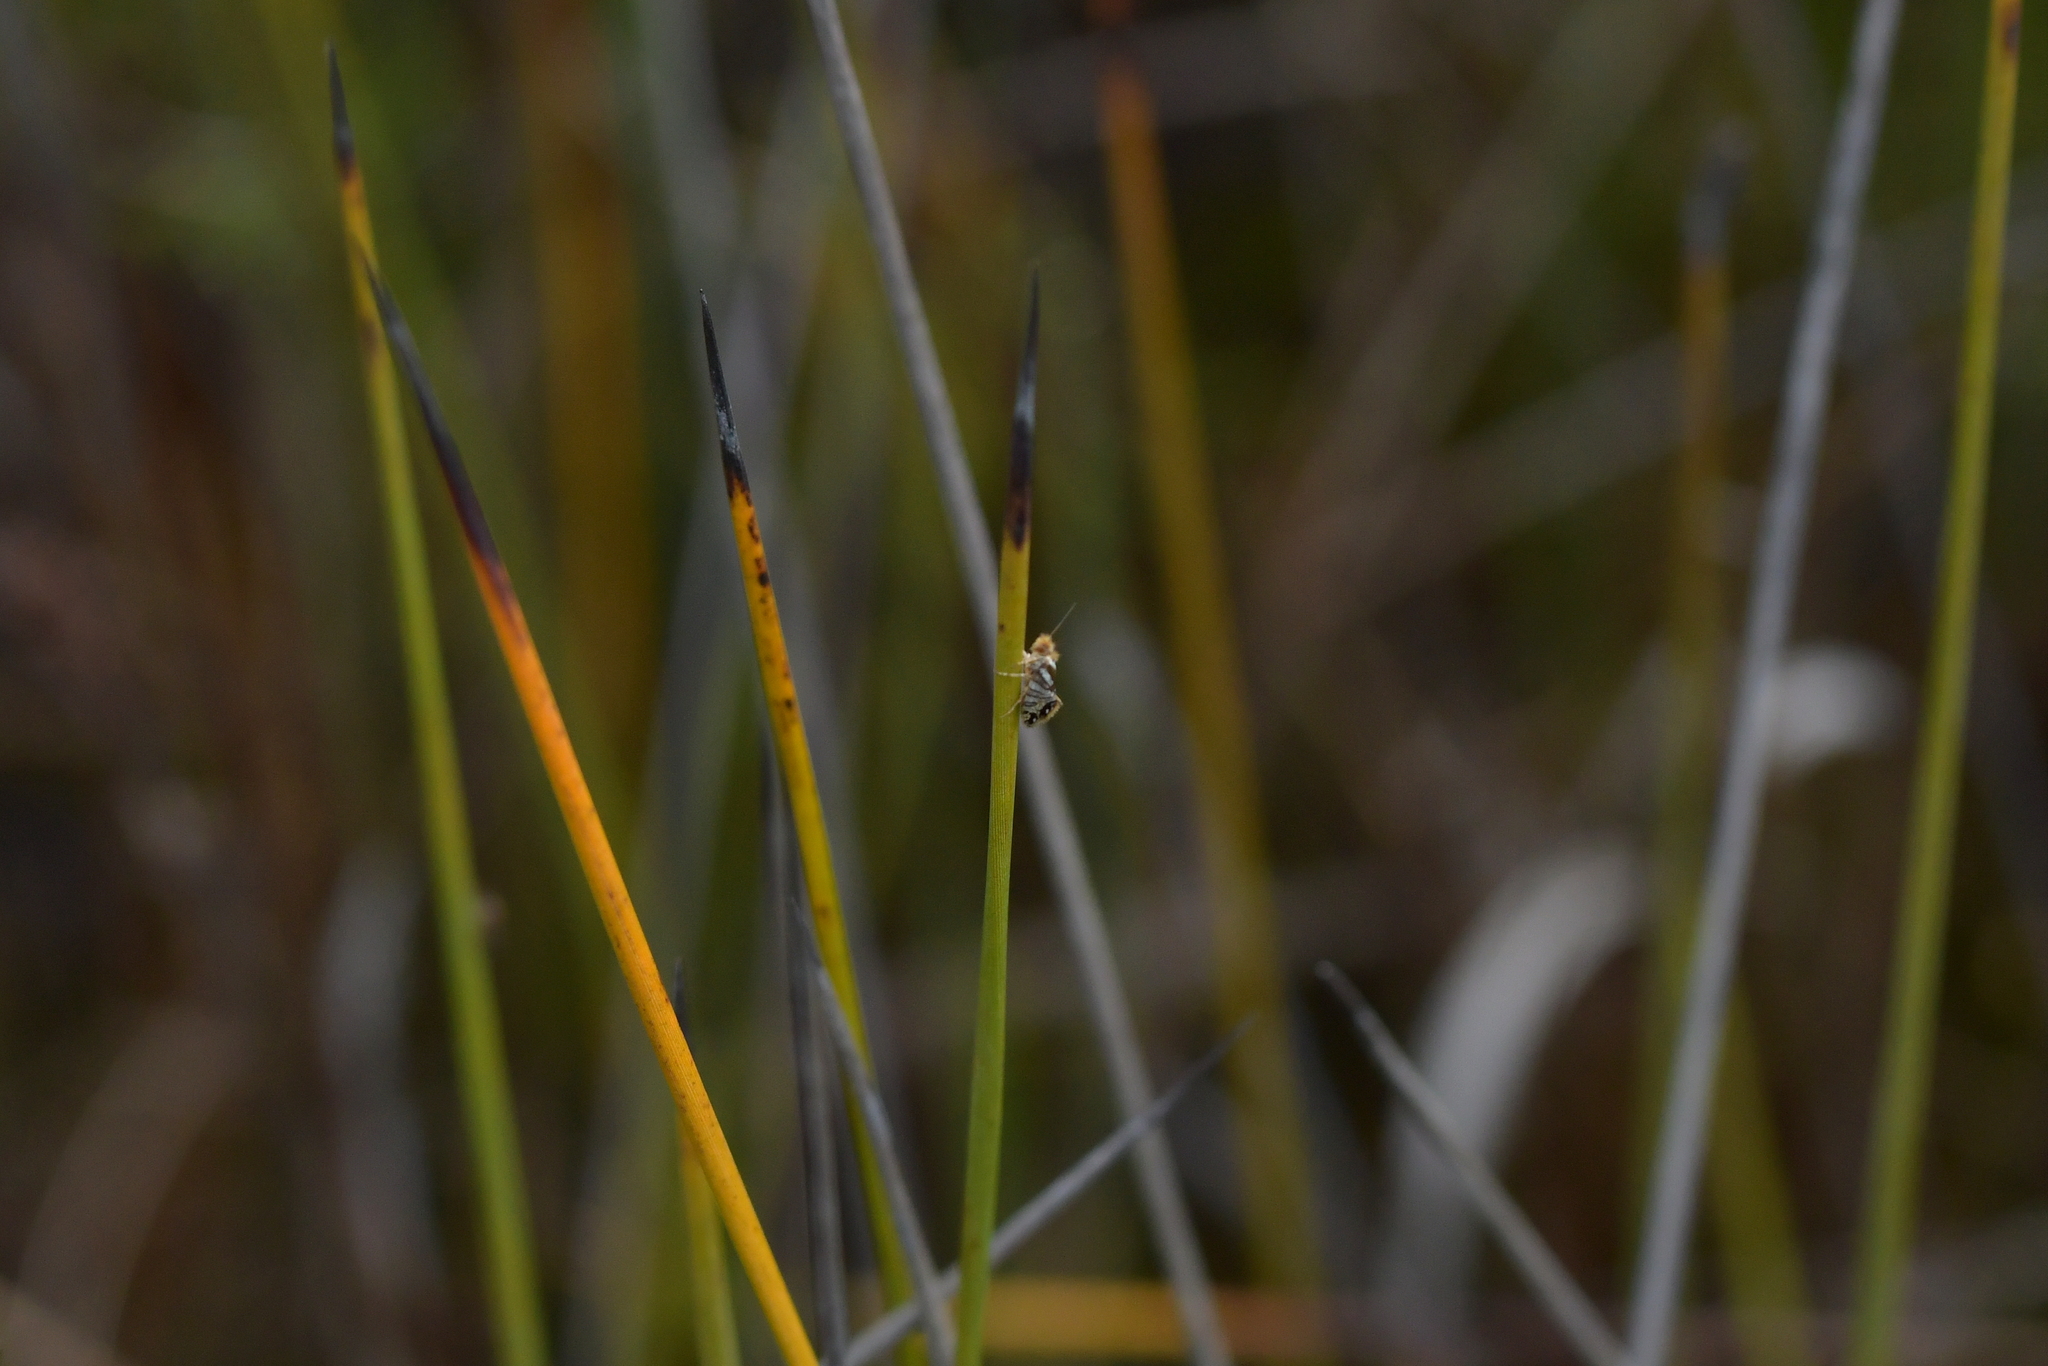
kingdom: Animalia
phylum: Arthropoda
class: Insecta
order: Lepidoptera
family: Micropterigidae
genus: Sabatinca
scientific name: Sabatinca doroxena
